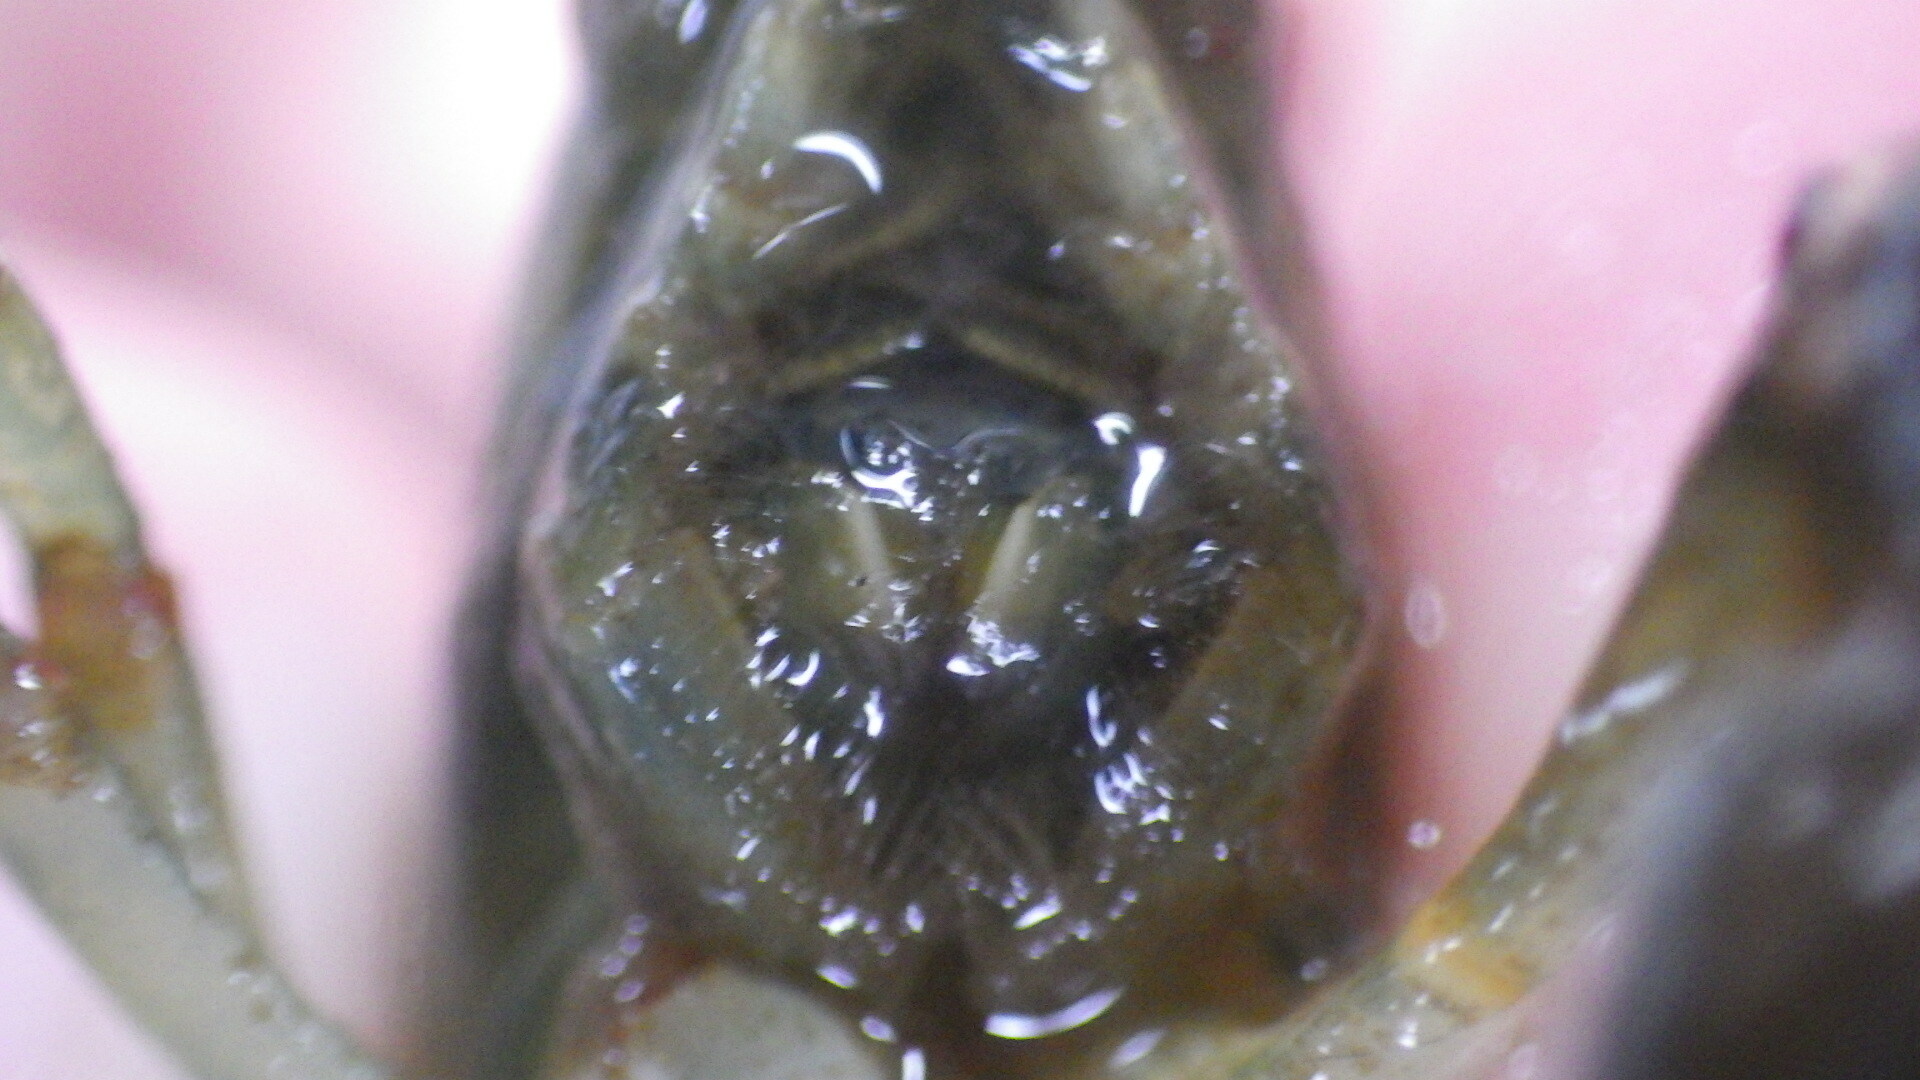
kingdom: Animalia
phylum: Arthropoda
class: Malacostraca
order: Decapoda
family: Cambaridae
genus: Faxonius
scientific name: Faxonius rusticus
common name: Rusty crayfish
